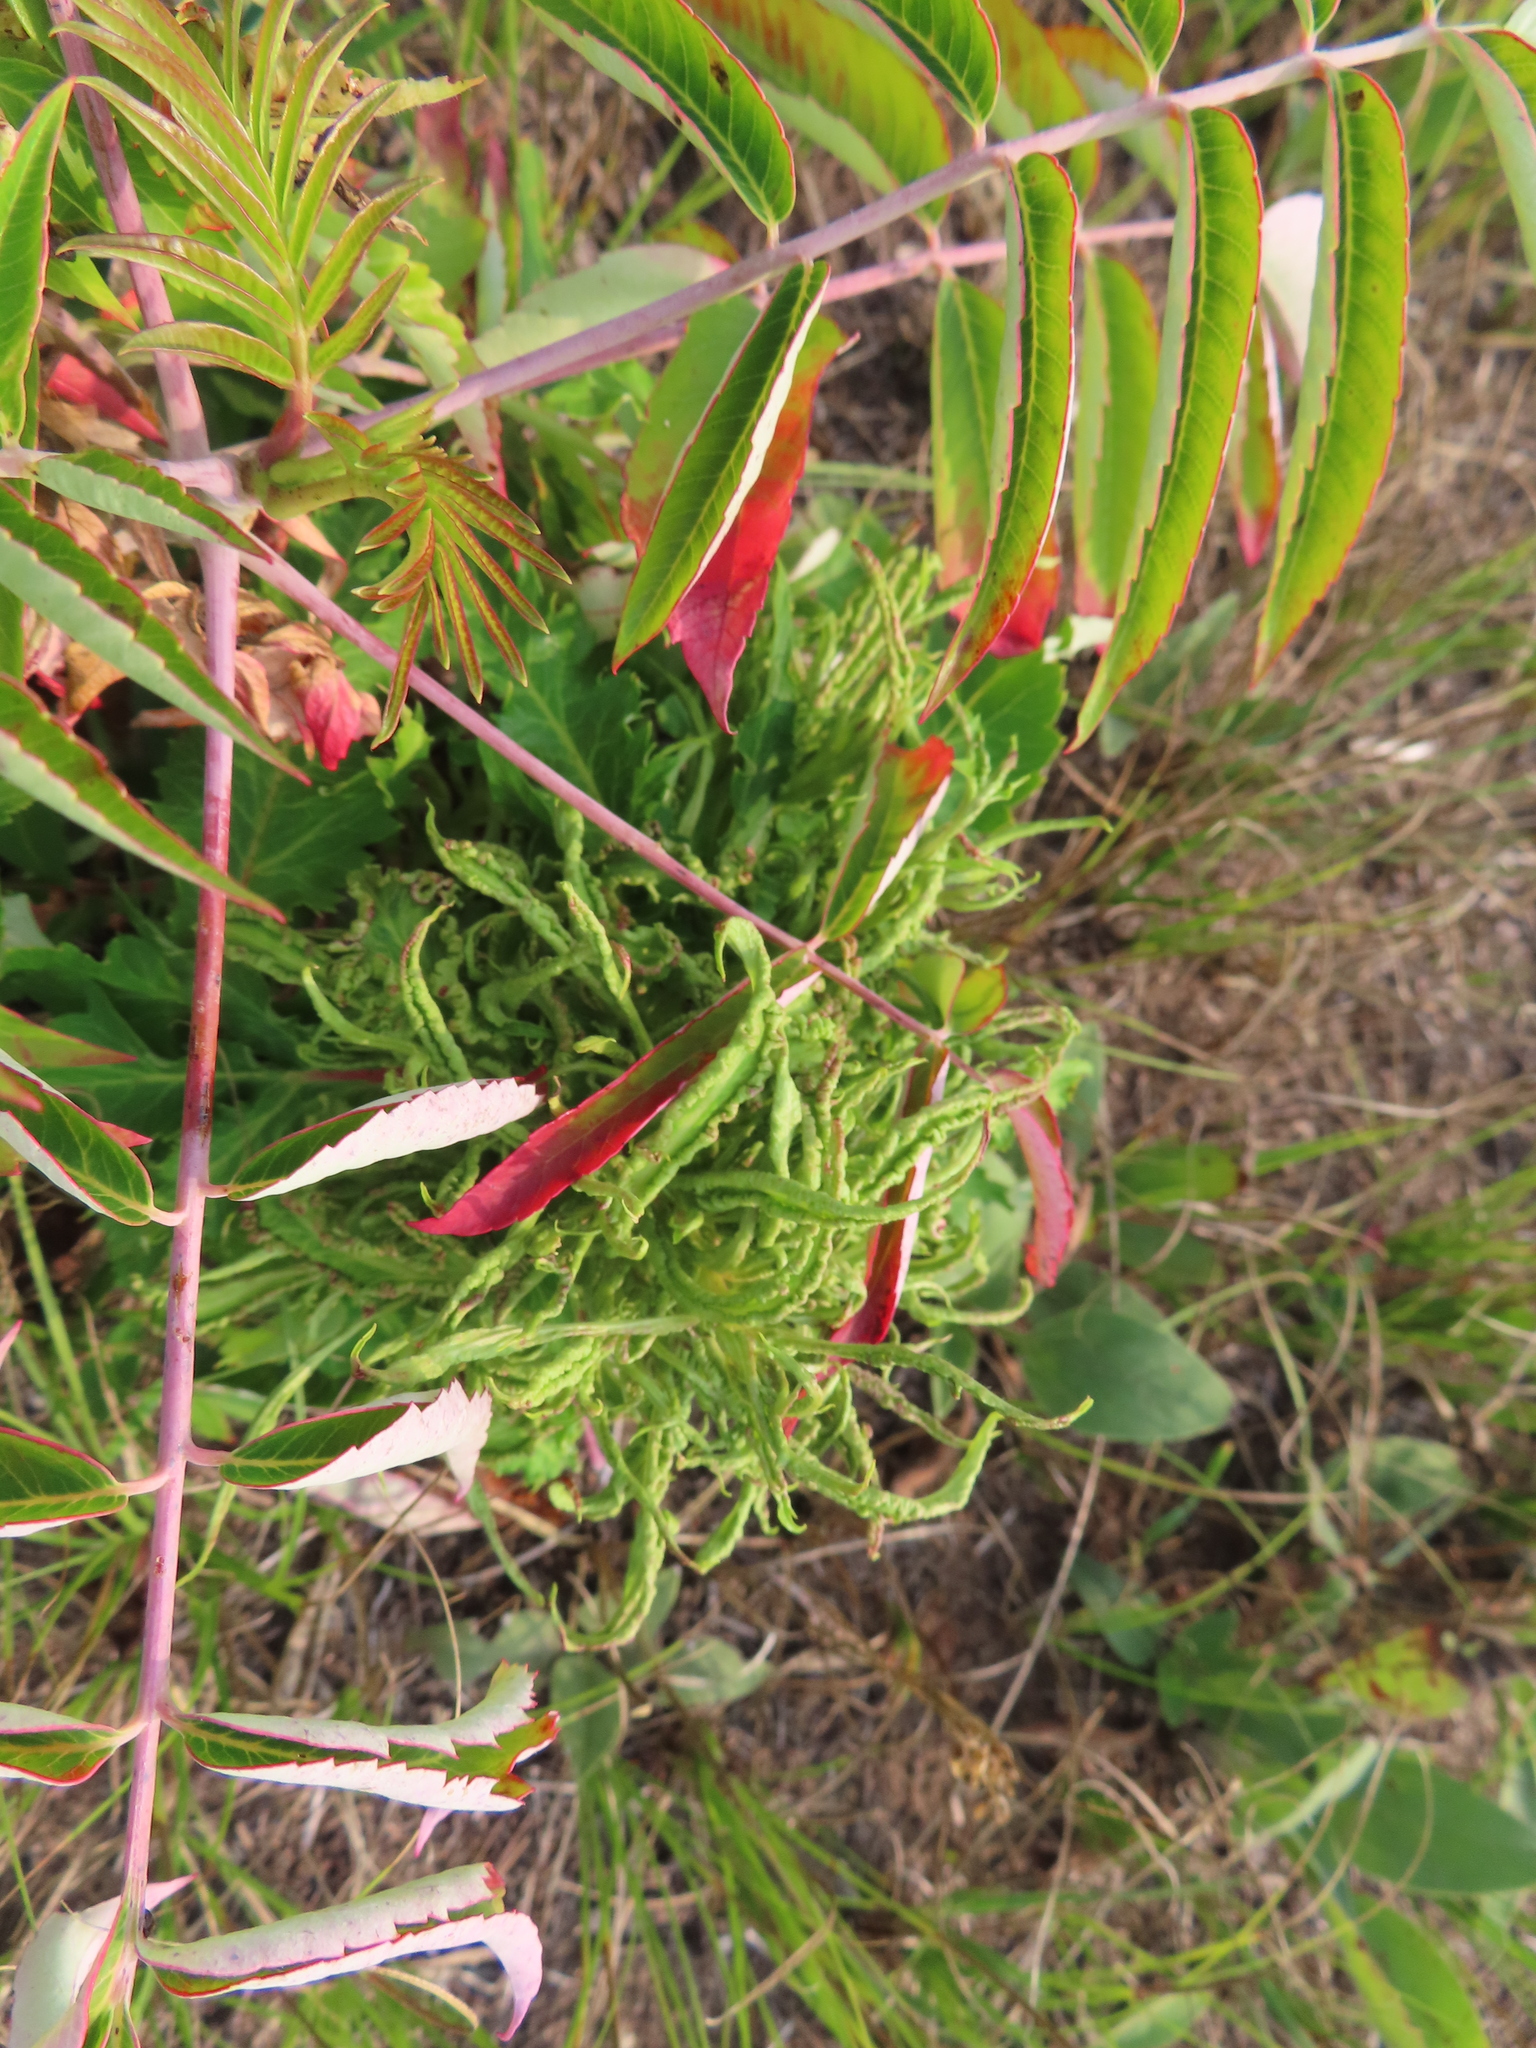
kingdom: Animalia
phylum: Arthropoda
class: Arachnida
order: Trombidiformes
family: Eriophyidae
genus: Eriophyes
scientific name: Eriophyes
